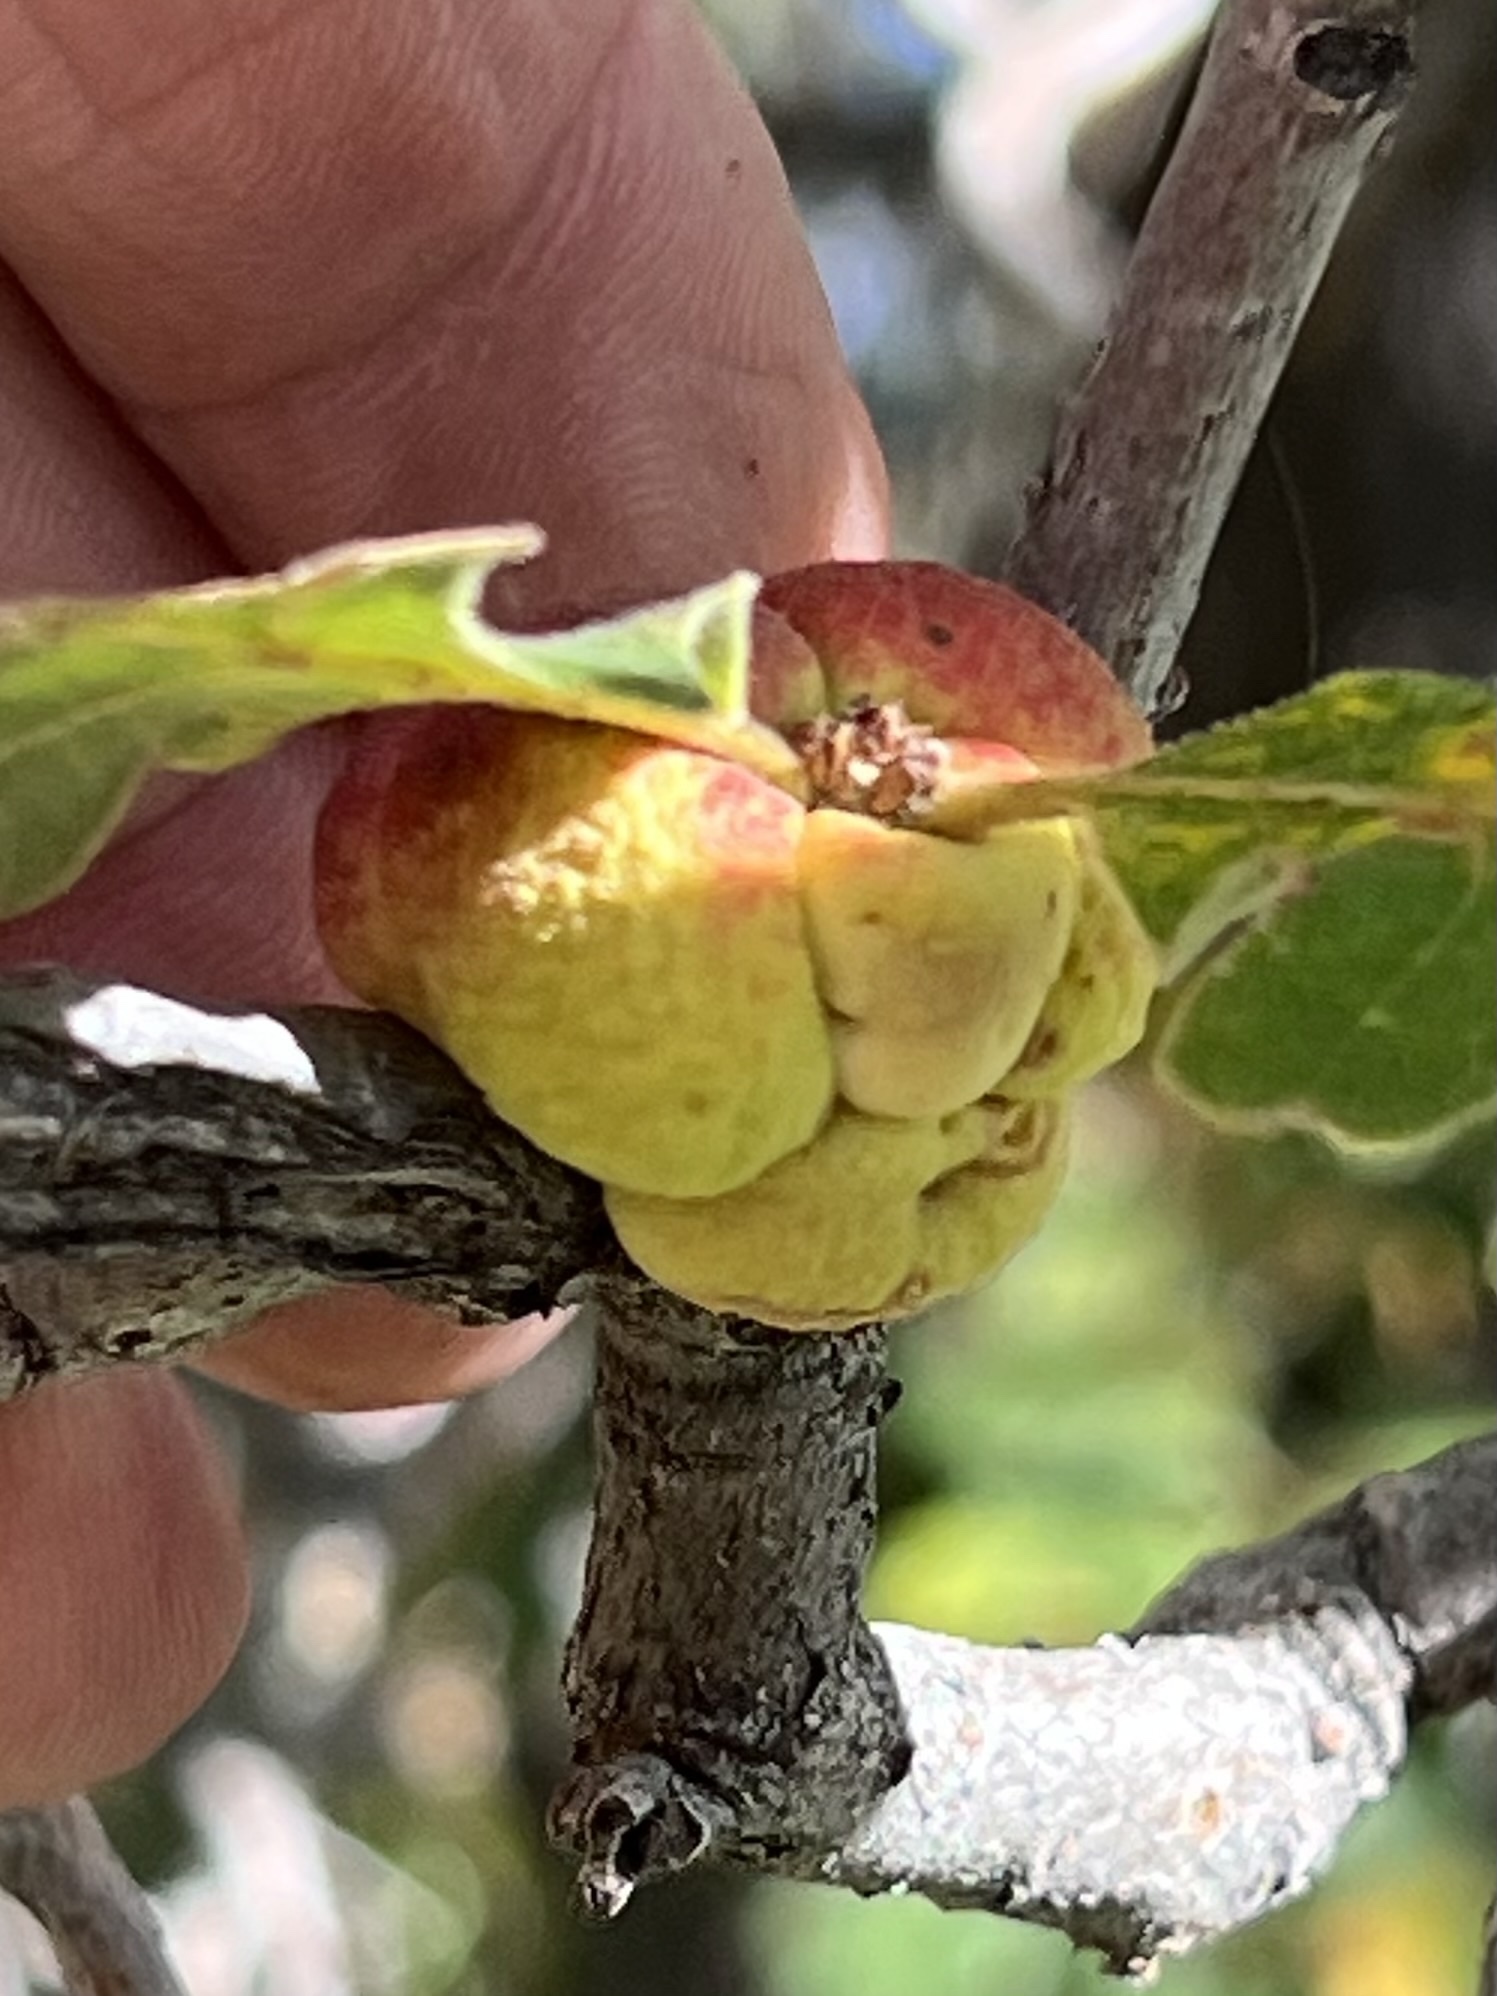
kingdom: Animalia
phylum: Arthropoda
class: Insecta
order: Hymenoptera
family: Cynipidae
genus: Disholcaspis
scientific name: Disholcaspis
